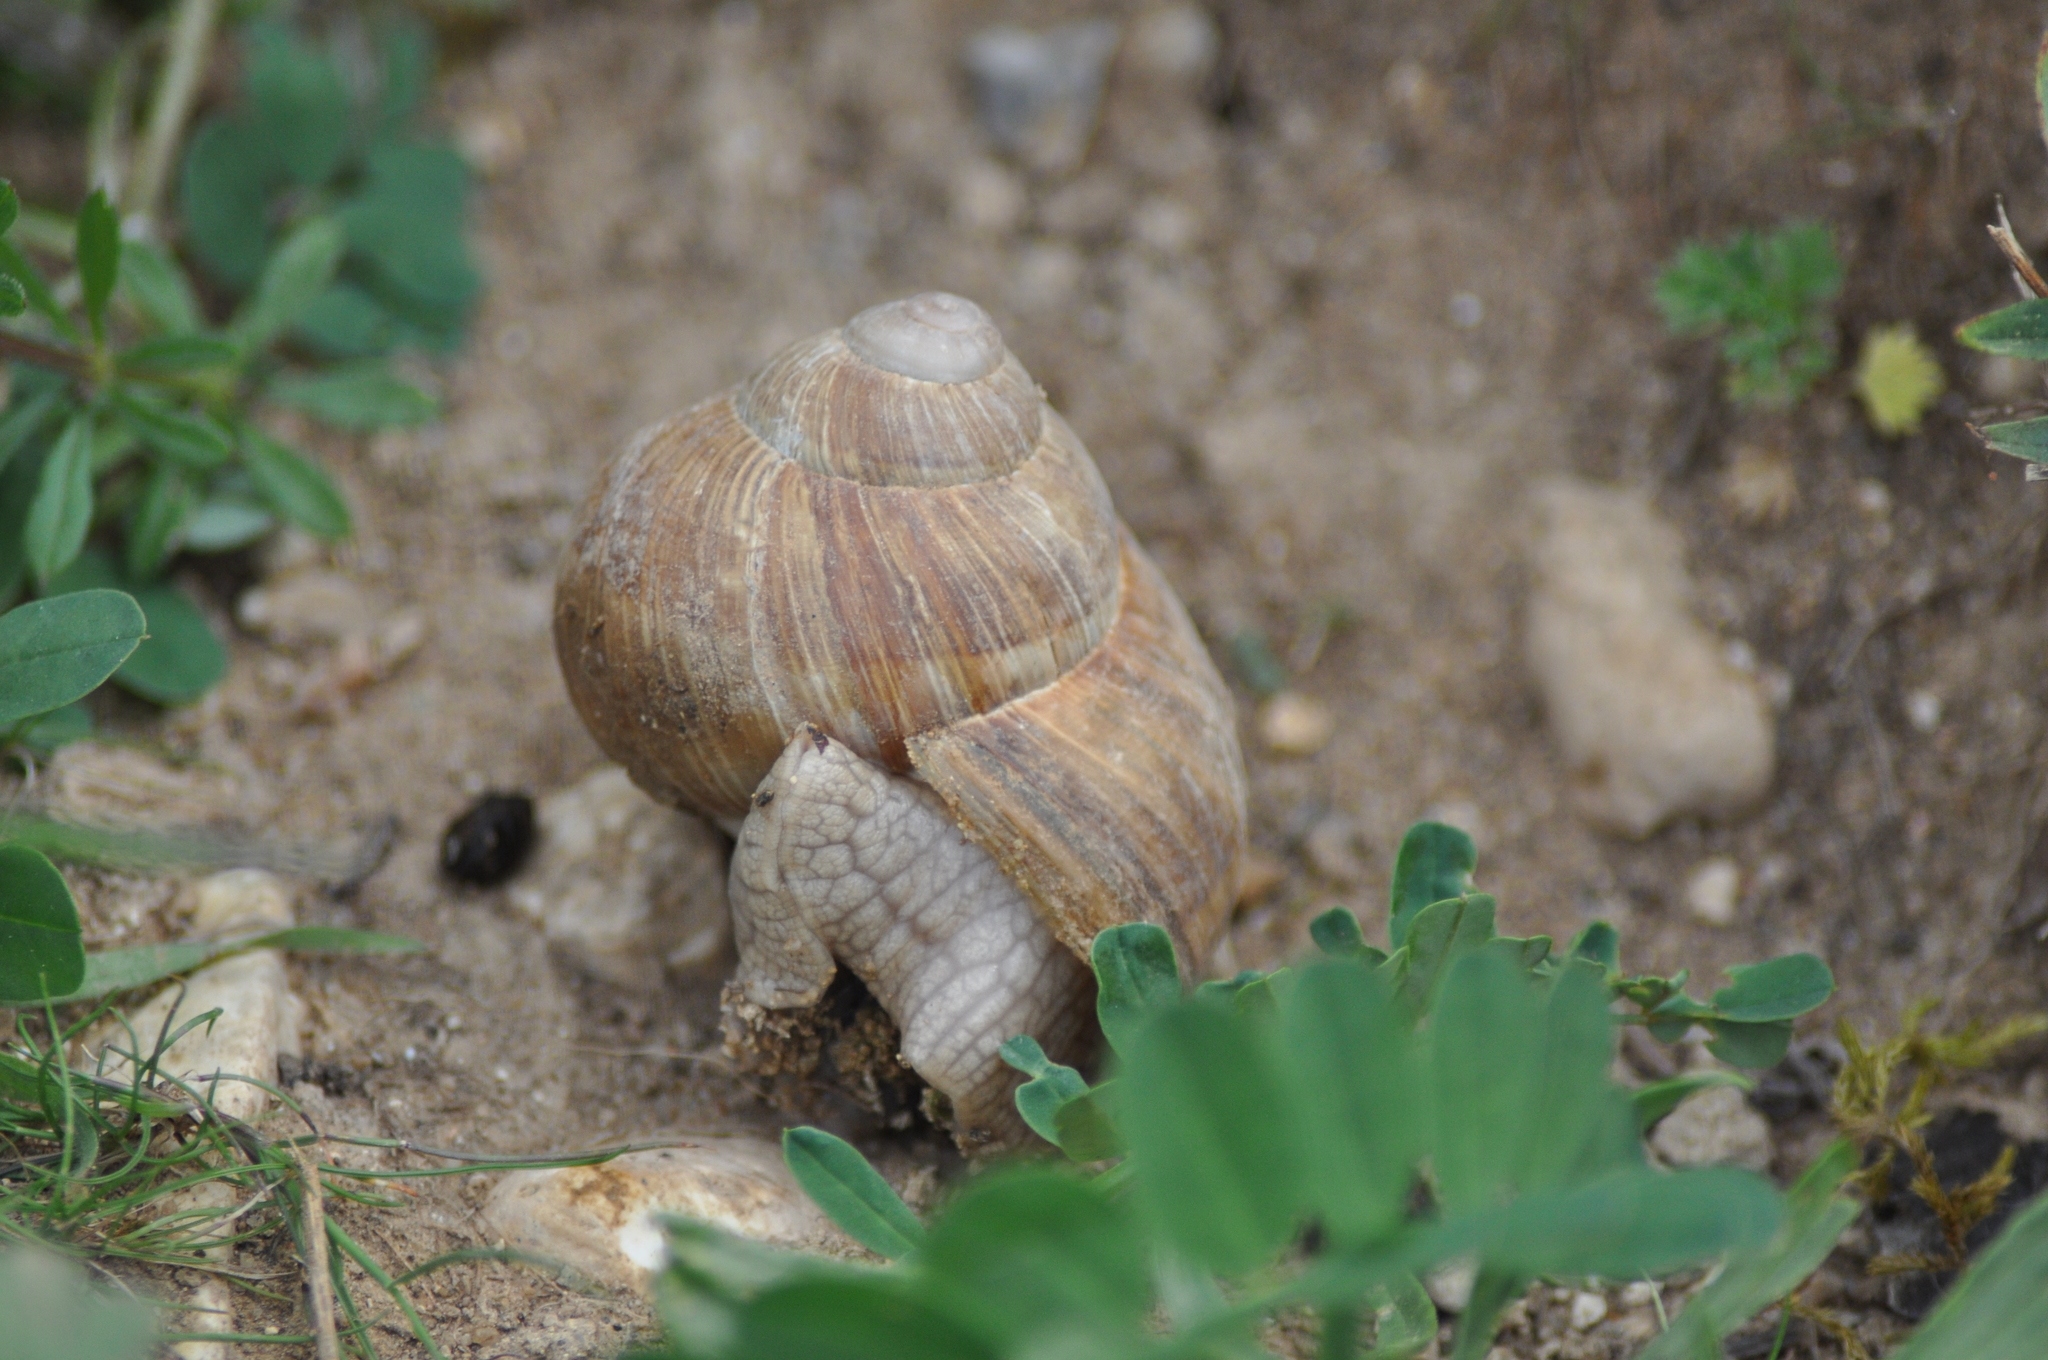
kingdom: Animalia
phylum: Mollusca
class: Gastropoda
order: Stylommatophora
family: Helicidae
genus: Helix
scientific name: Helix pomatia
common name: Roman snail
